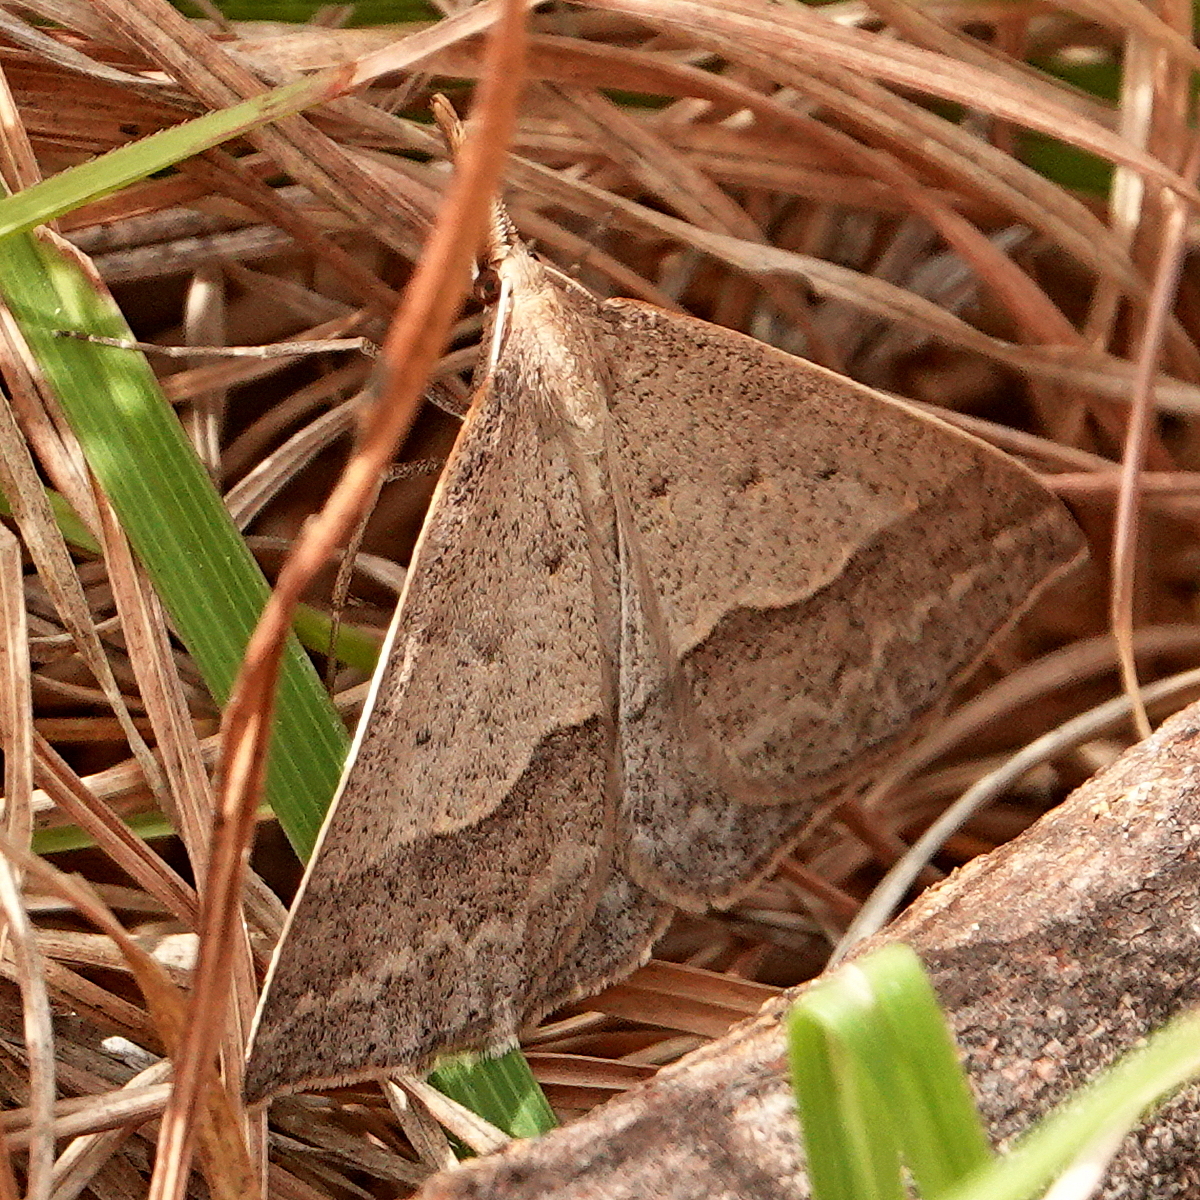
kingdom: Animalia
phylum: Arthropoda
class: Insecta
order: Lepidoptera
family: Geometridae
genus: Epidesmia
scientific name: Epidesmia hypenaria
